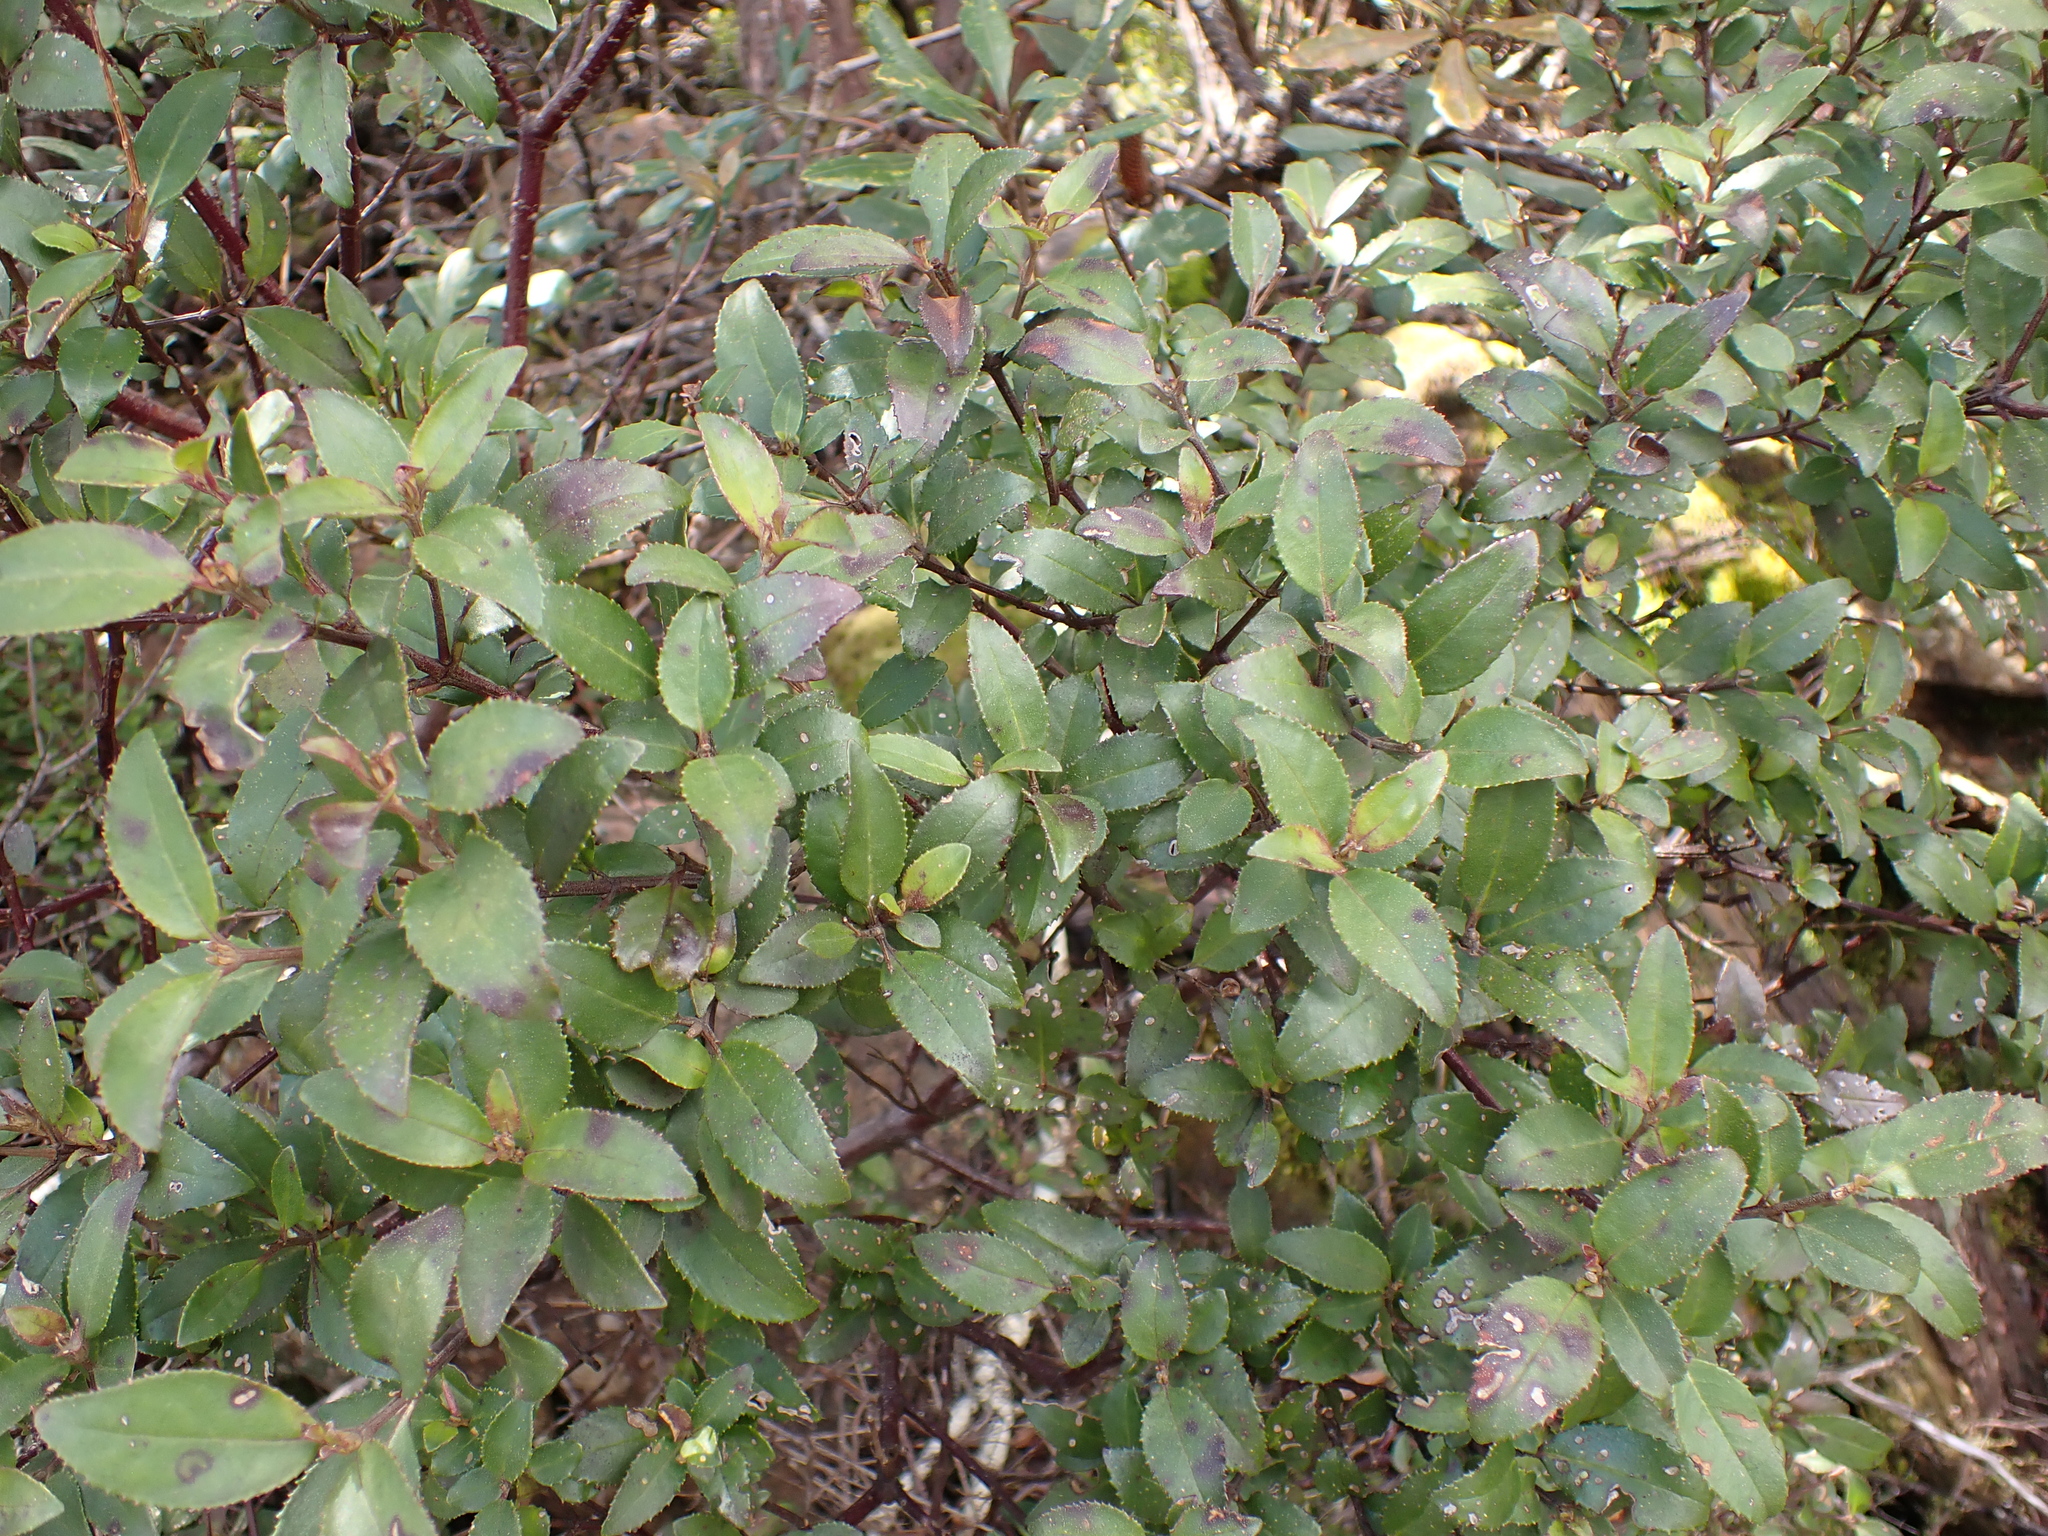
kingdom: Plantae
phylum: Tracheophyta
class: Magnoliopsida
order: Lamiales
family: Lamiaceae
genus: Prostanthera
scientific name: Prostanthera lasianthos
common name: Mountain-lilac
